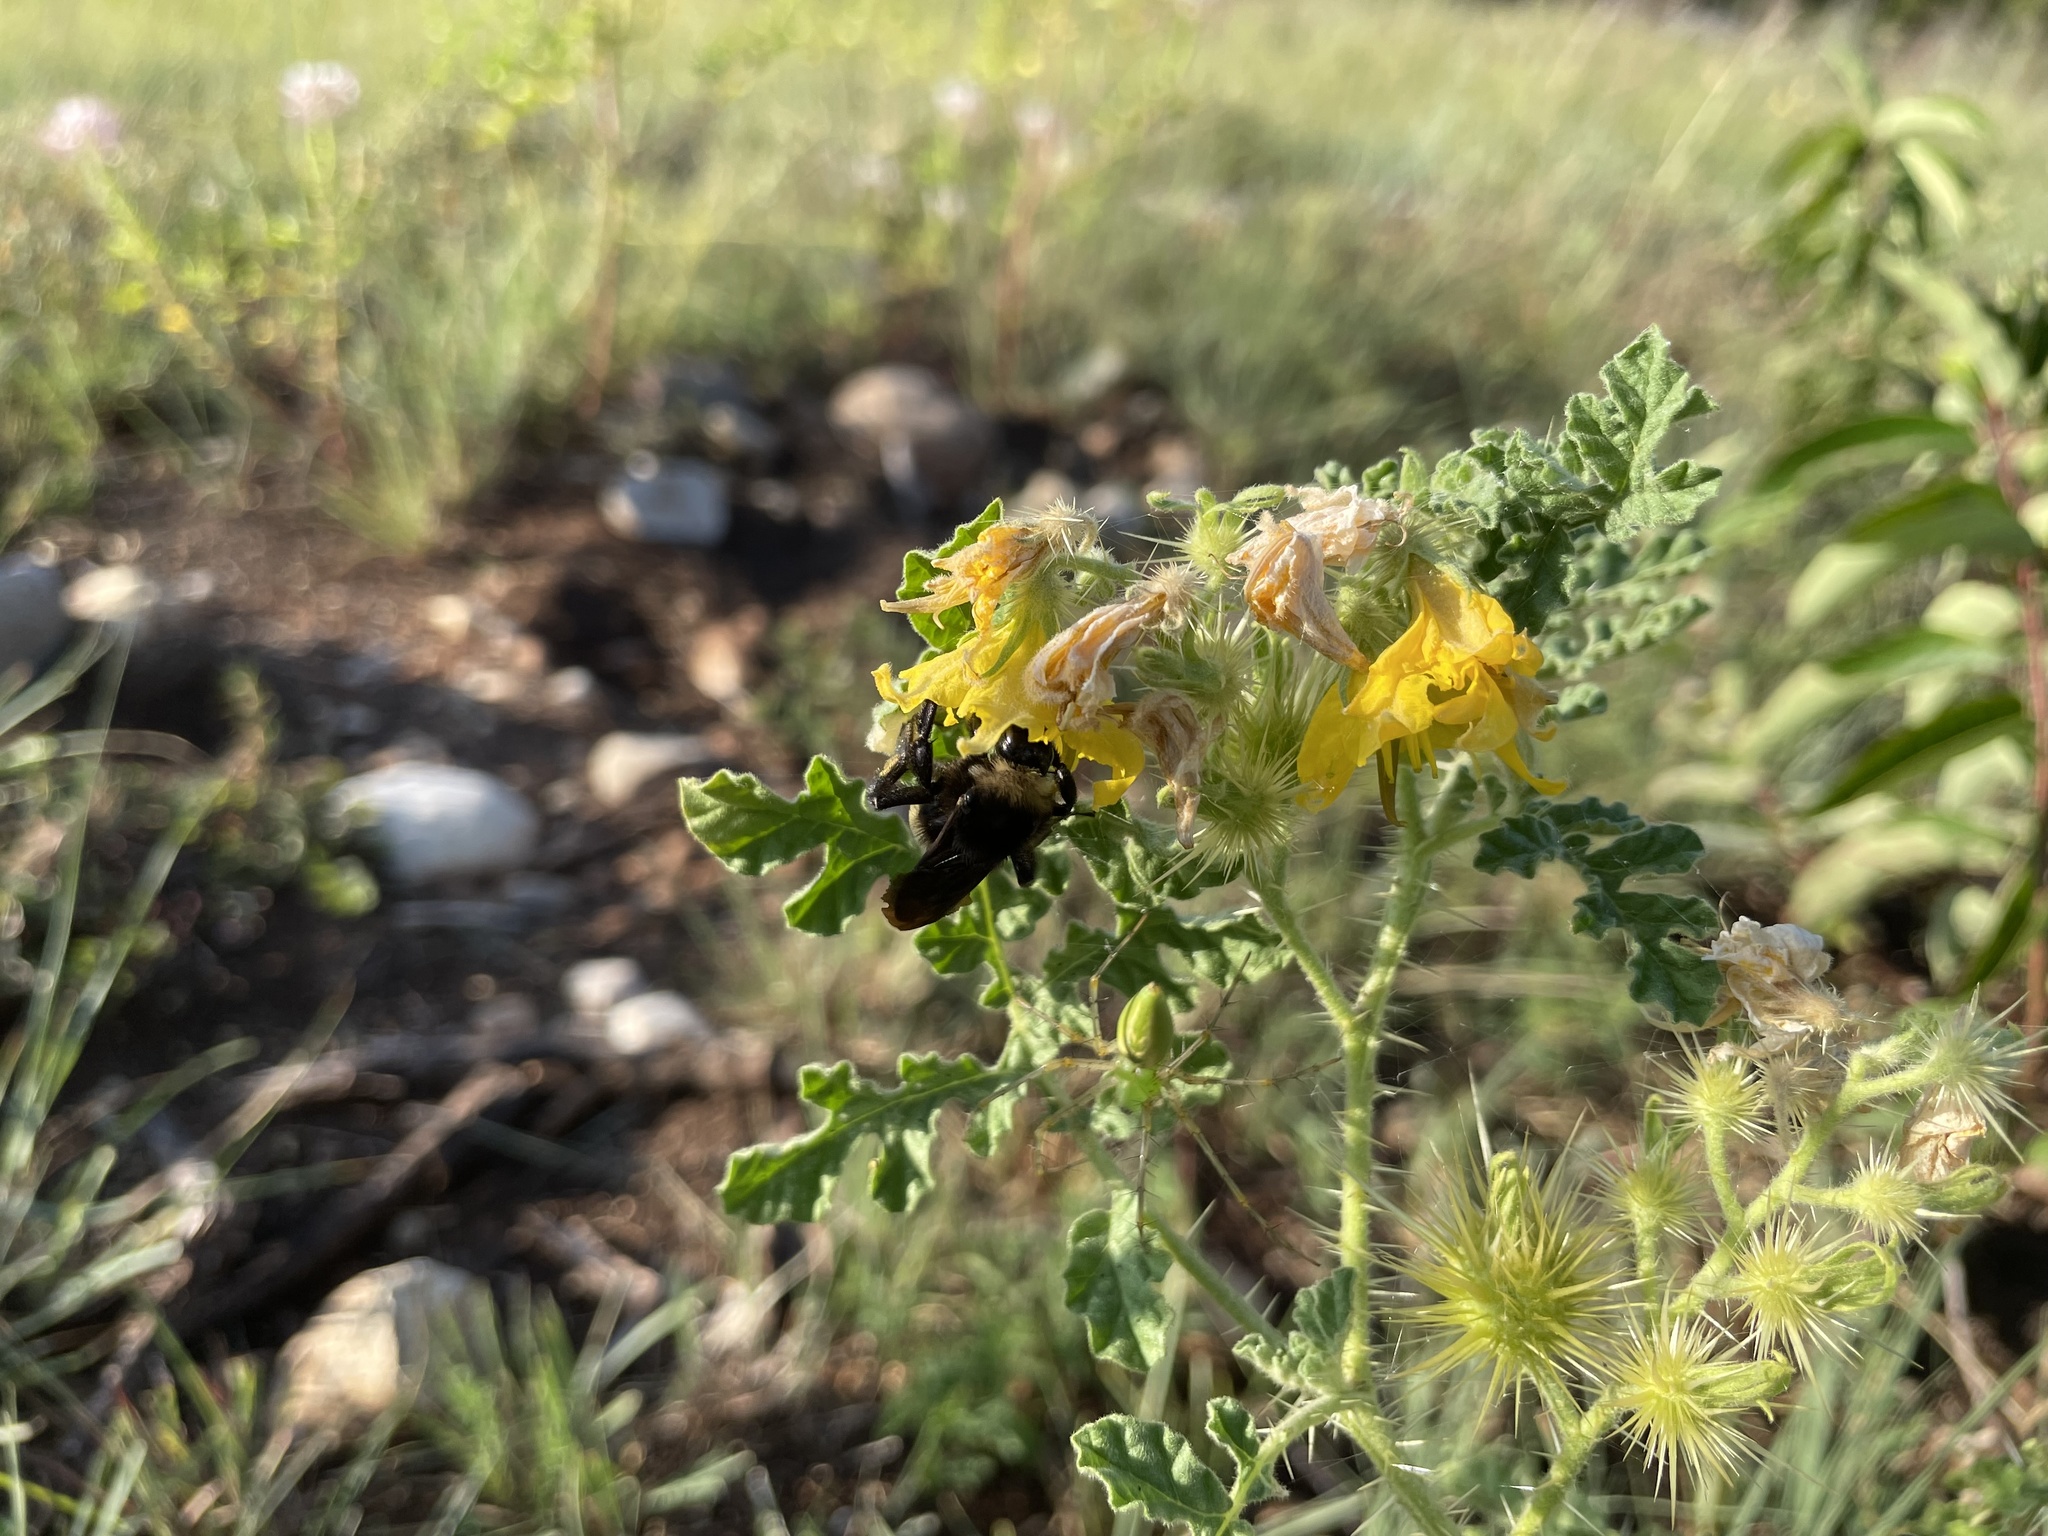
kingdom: Animalia
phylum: Arthropoda
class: Insecta
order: Hymenoptera
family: Apidae
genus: Bombus
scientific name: Bombus pensylvanicus
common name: Bumble bee
